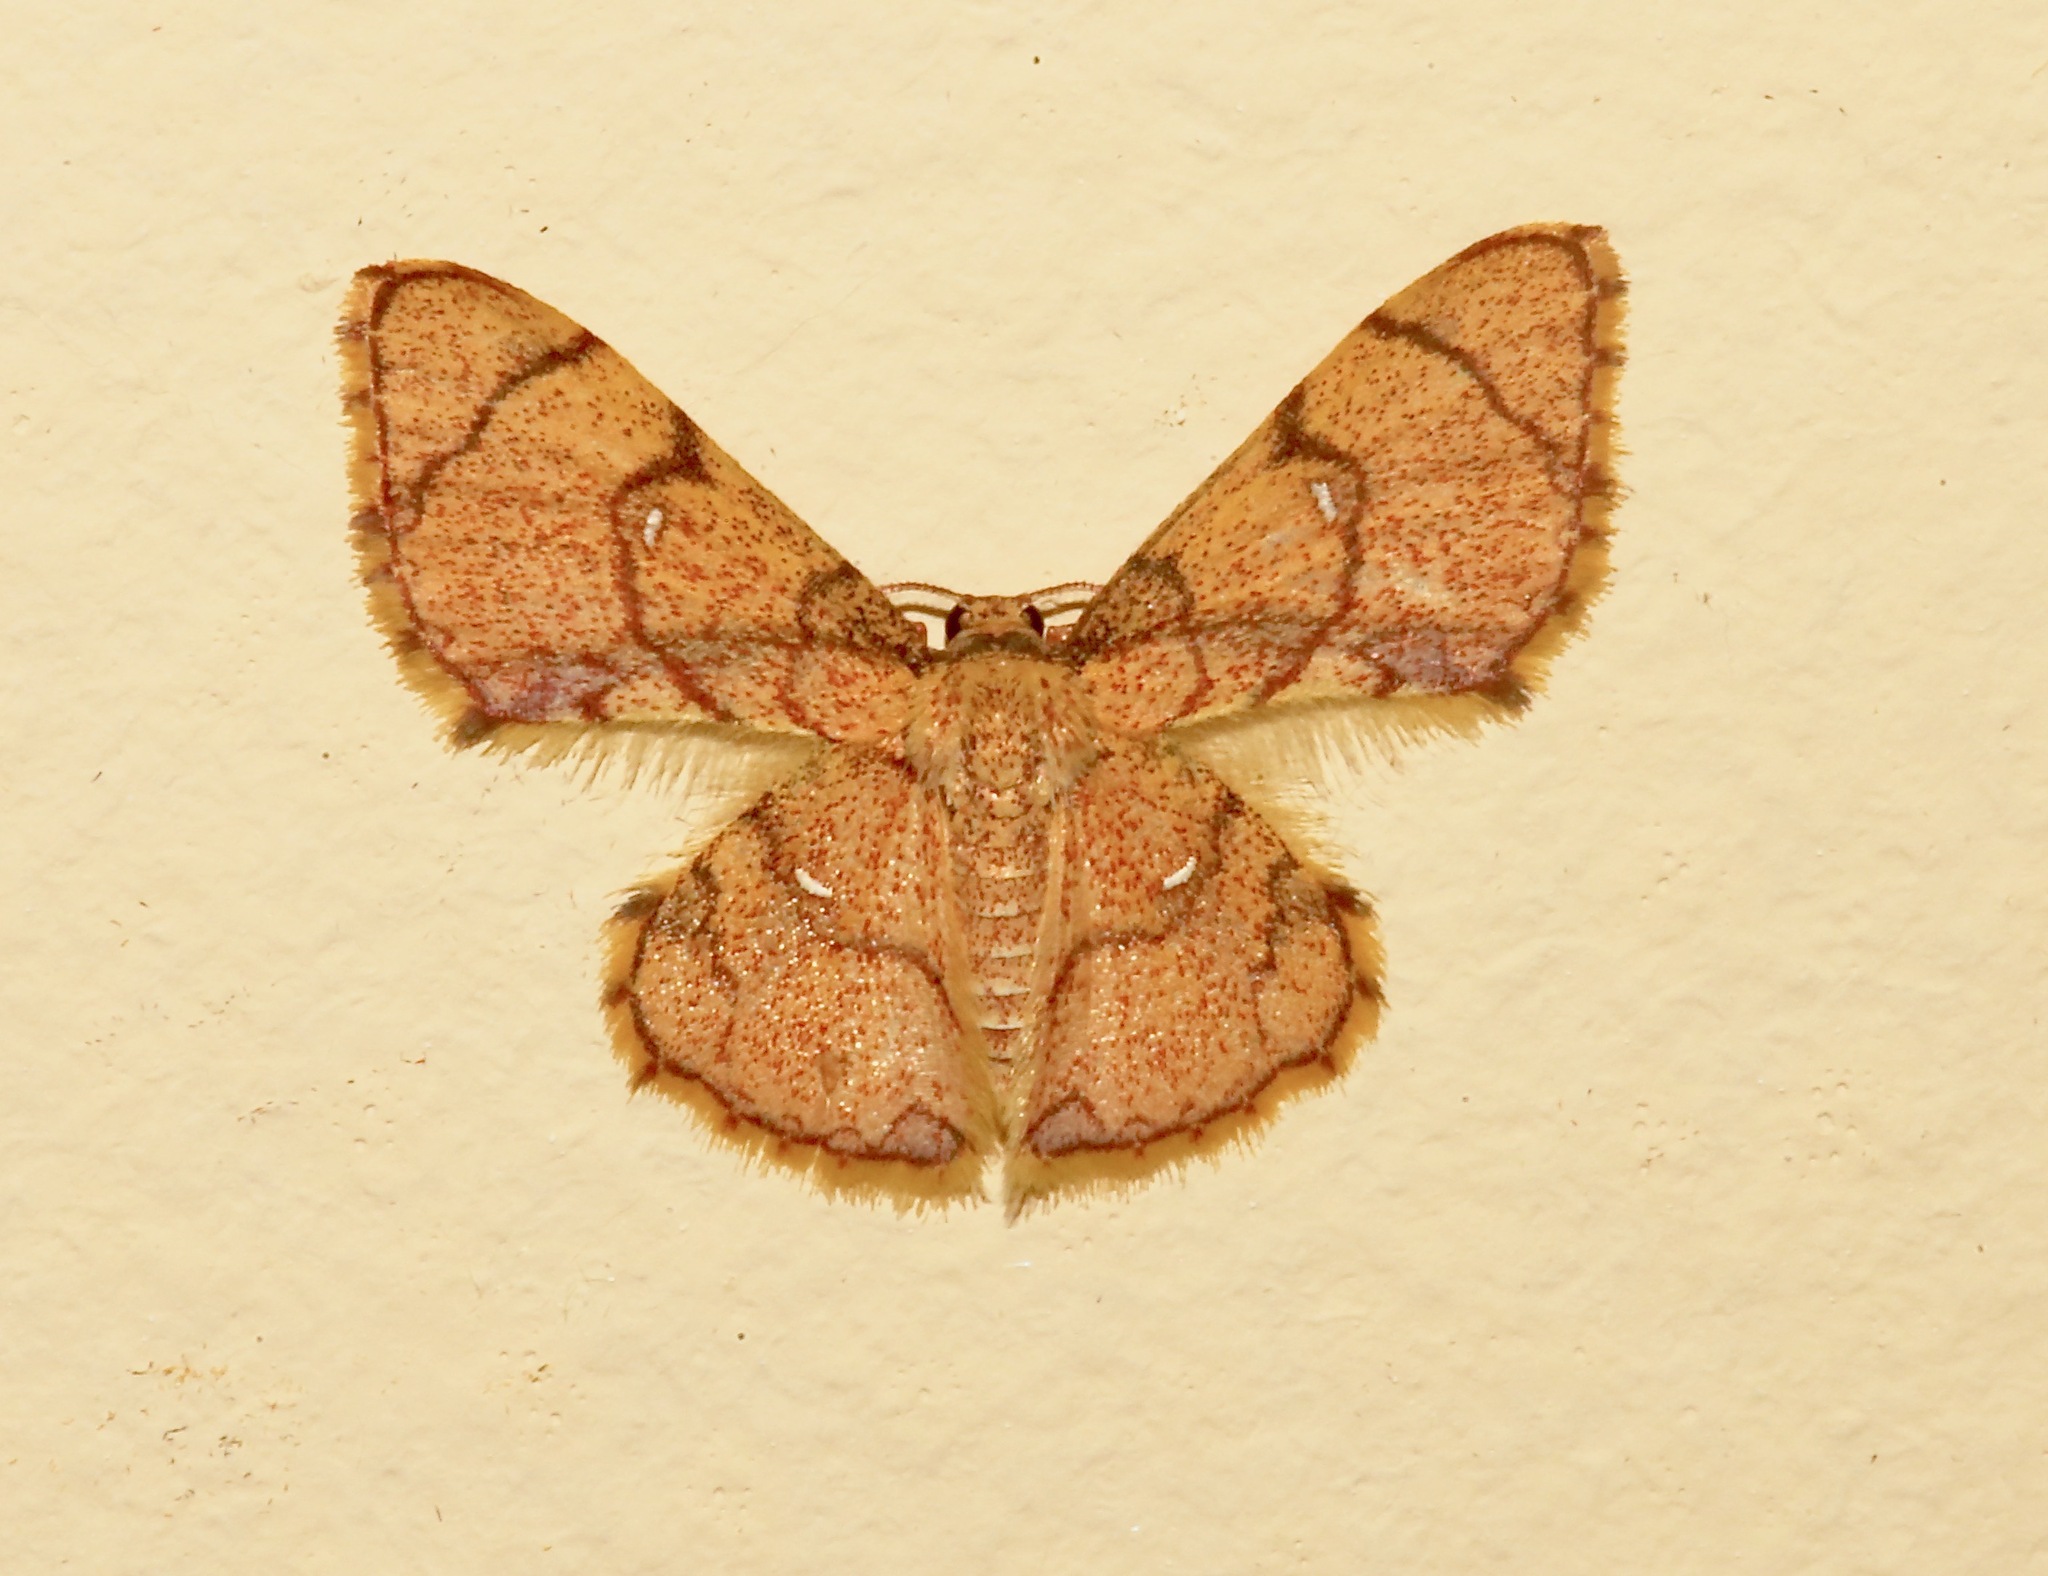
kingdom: Animalia
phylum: Arthropoda
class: Insecta
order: Lepidoptera
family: Geometridae
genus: Hemipterodes
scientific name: Hemipterodes divaricata
